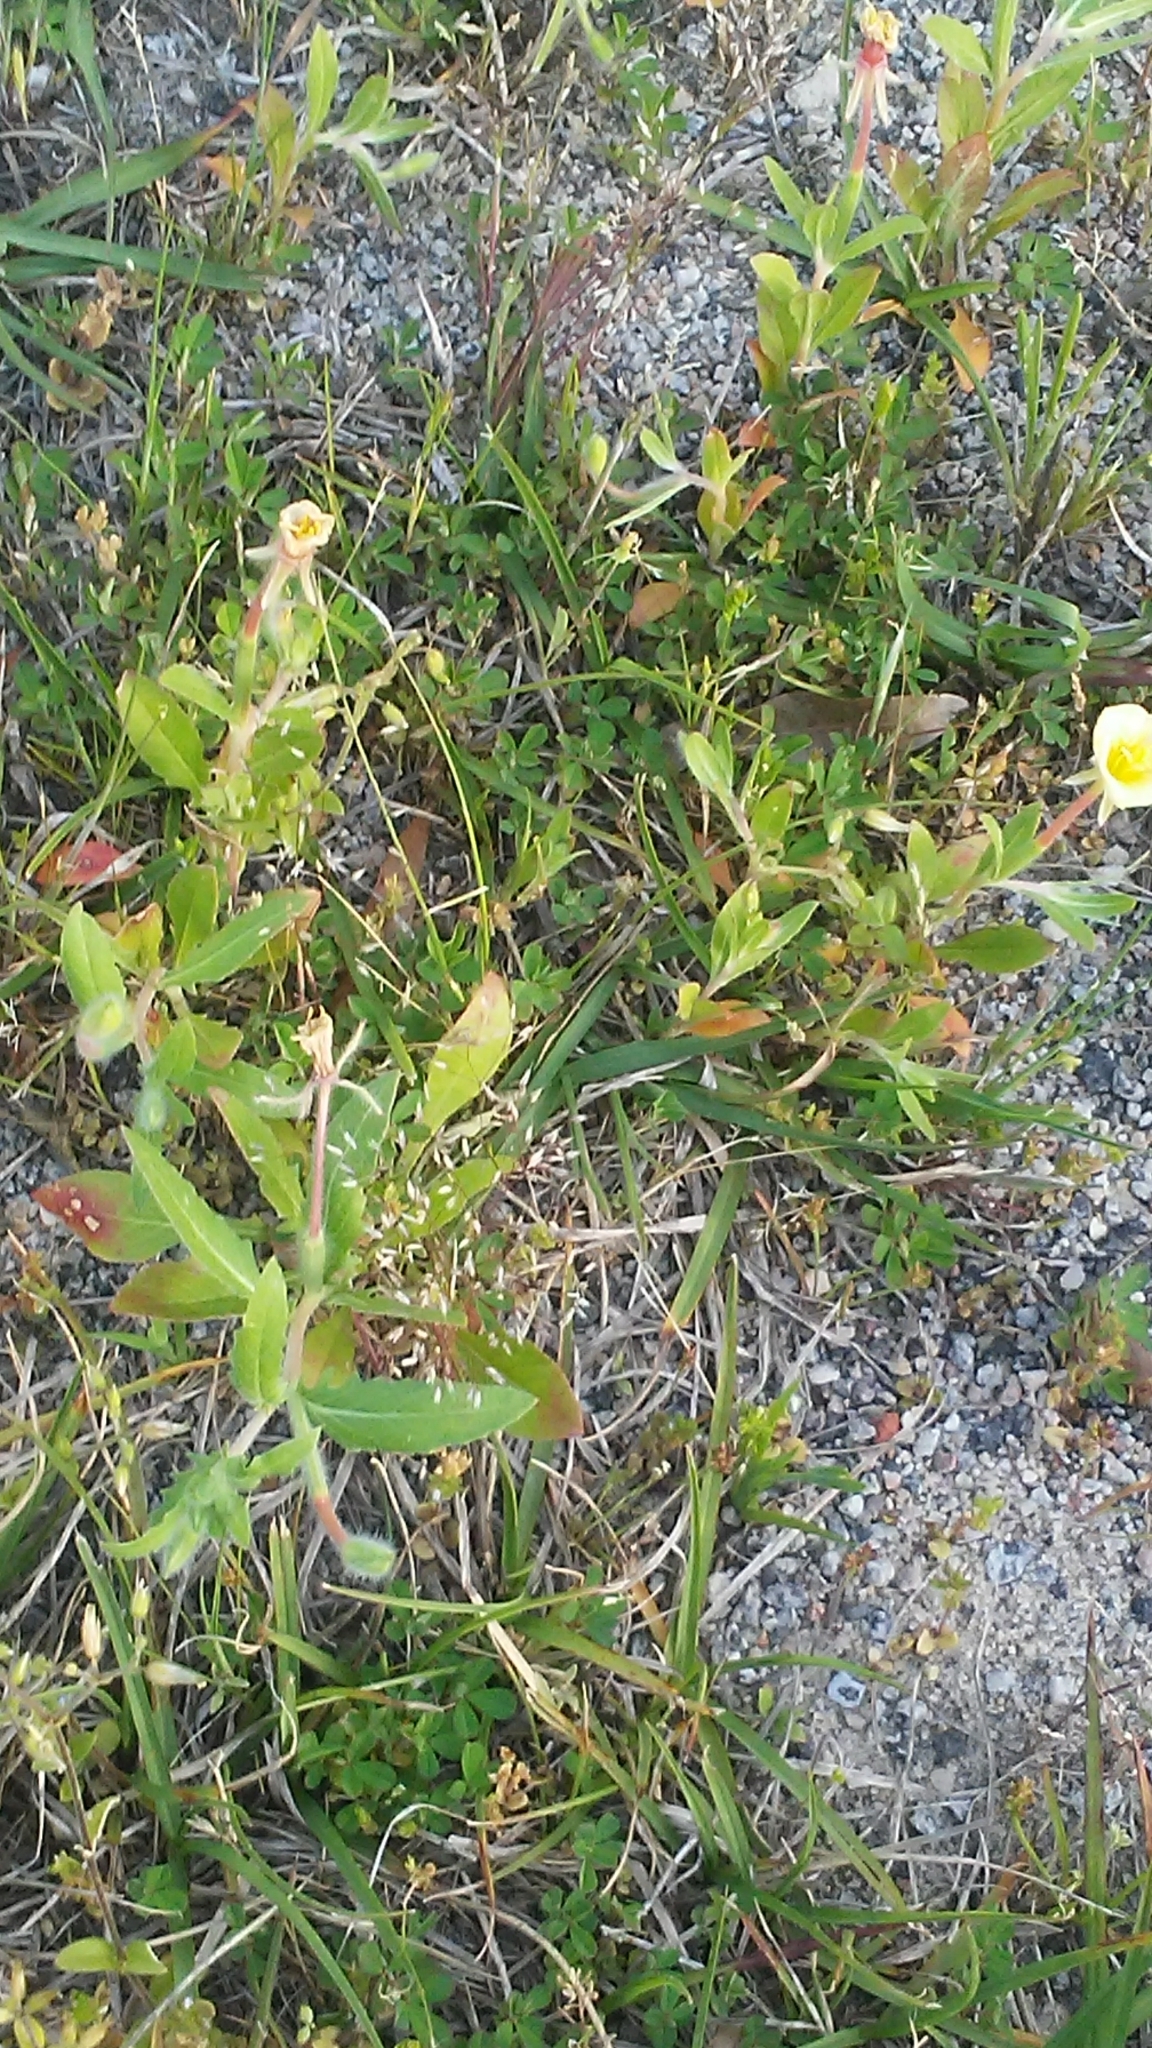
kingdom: Plantae
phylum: Tracheophyta
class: Magnoliopsida
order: Myrtales
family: Onagraceae
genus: Oenothera
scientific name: Oenothera laciniata
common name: Cut-leaved evening-primrose
